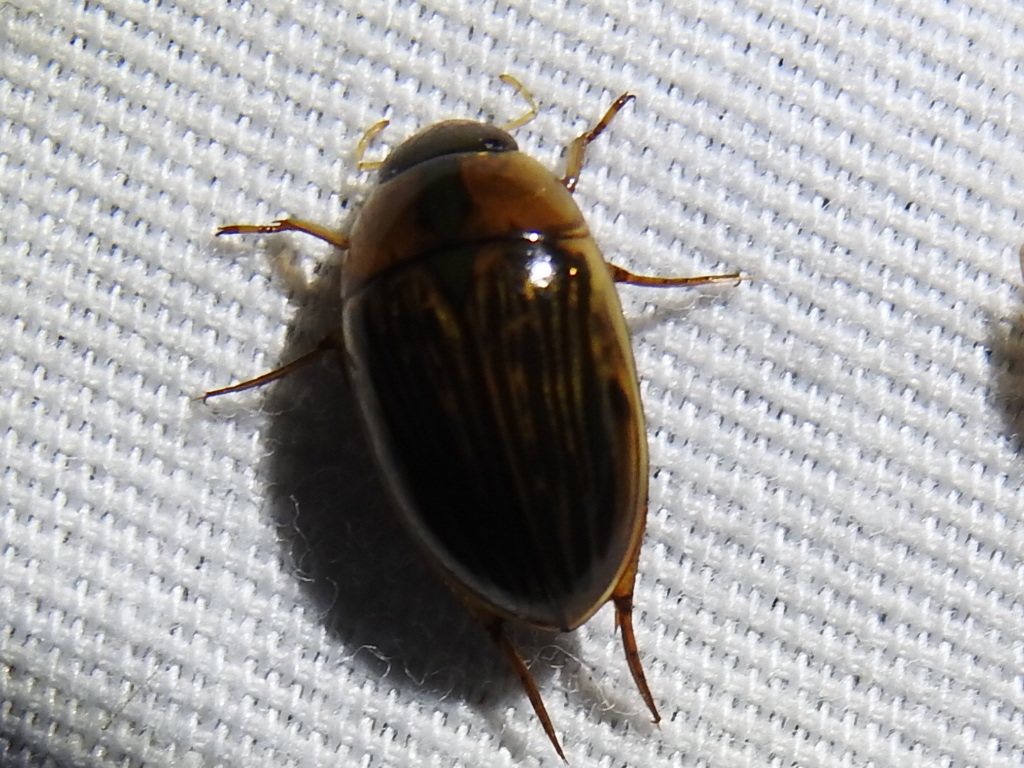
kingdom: Animalia
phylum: Arthropoda
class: Insecta
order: Coleoptera
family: Hydrophilidae
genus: Tropisternus
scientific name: Tropisternus collaris
